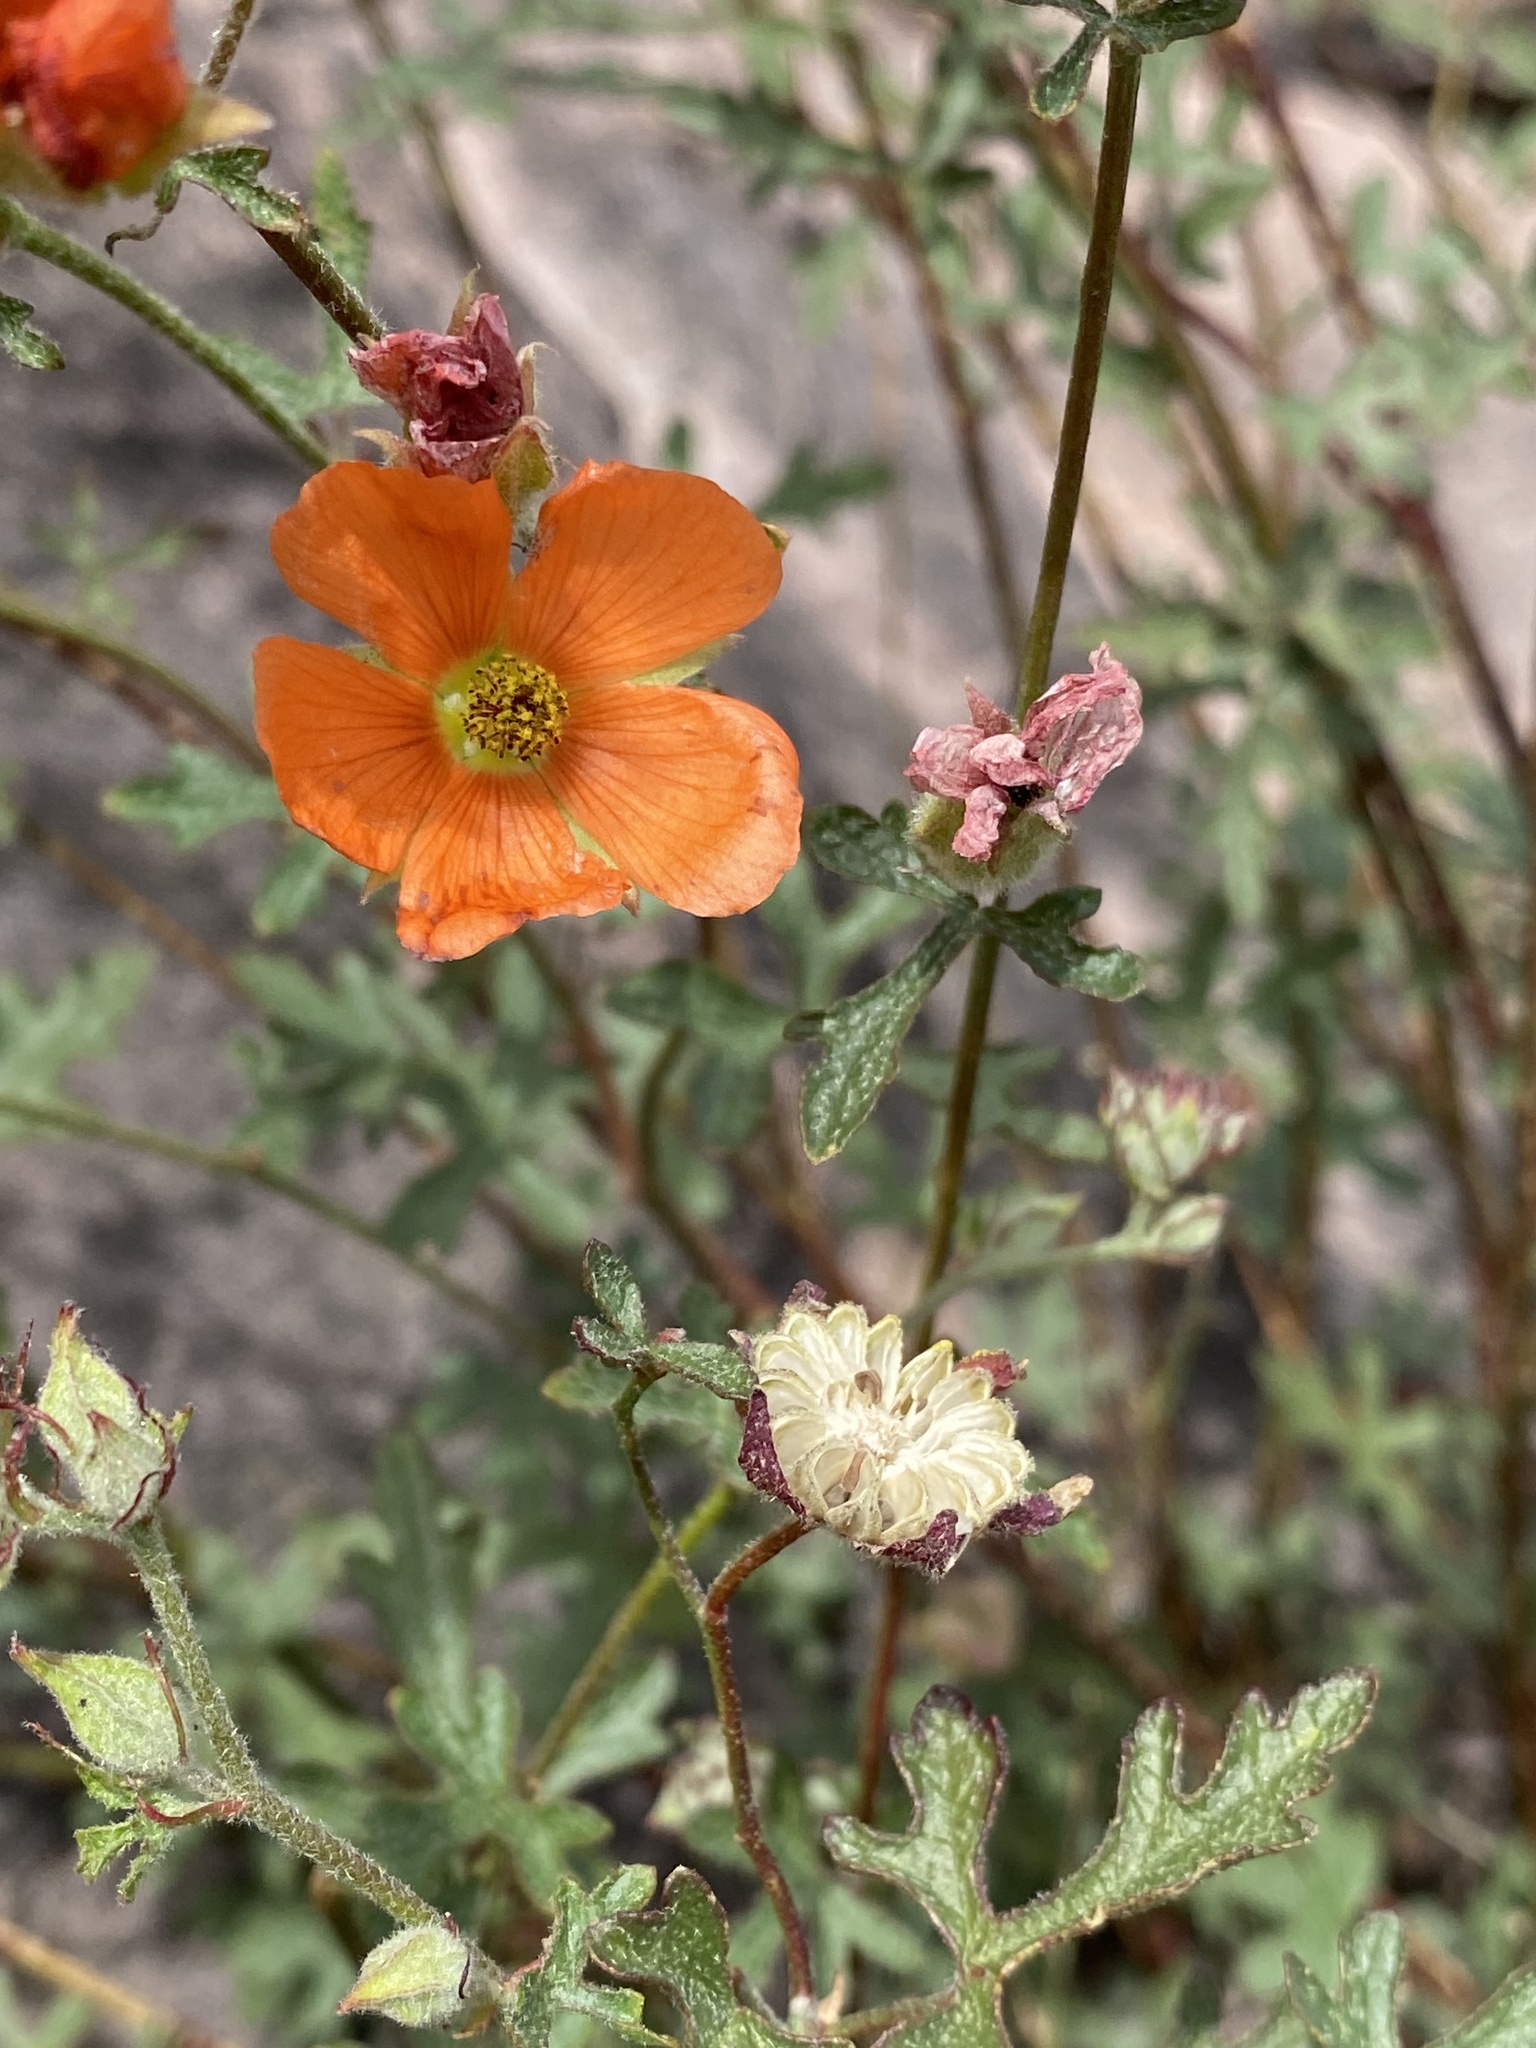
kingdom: Plantae
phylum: Tracheophyta
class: Magnoliopsida
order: Malvales
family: Malvaceae
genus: Sphaeralcea
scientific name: Sphaeralcea rusbyi
